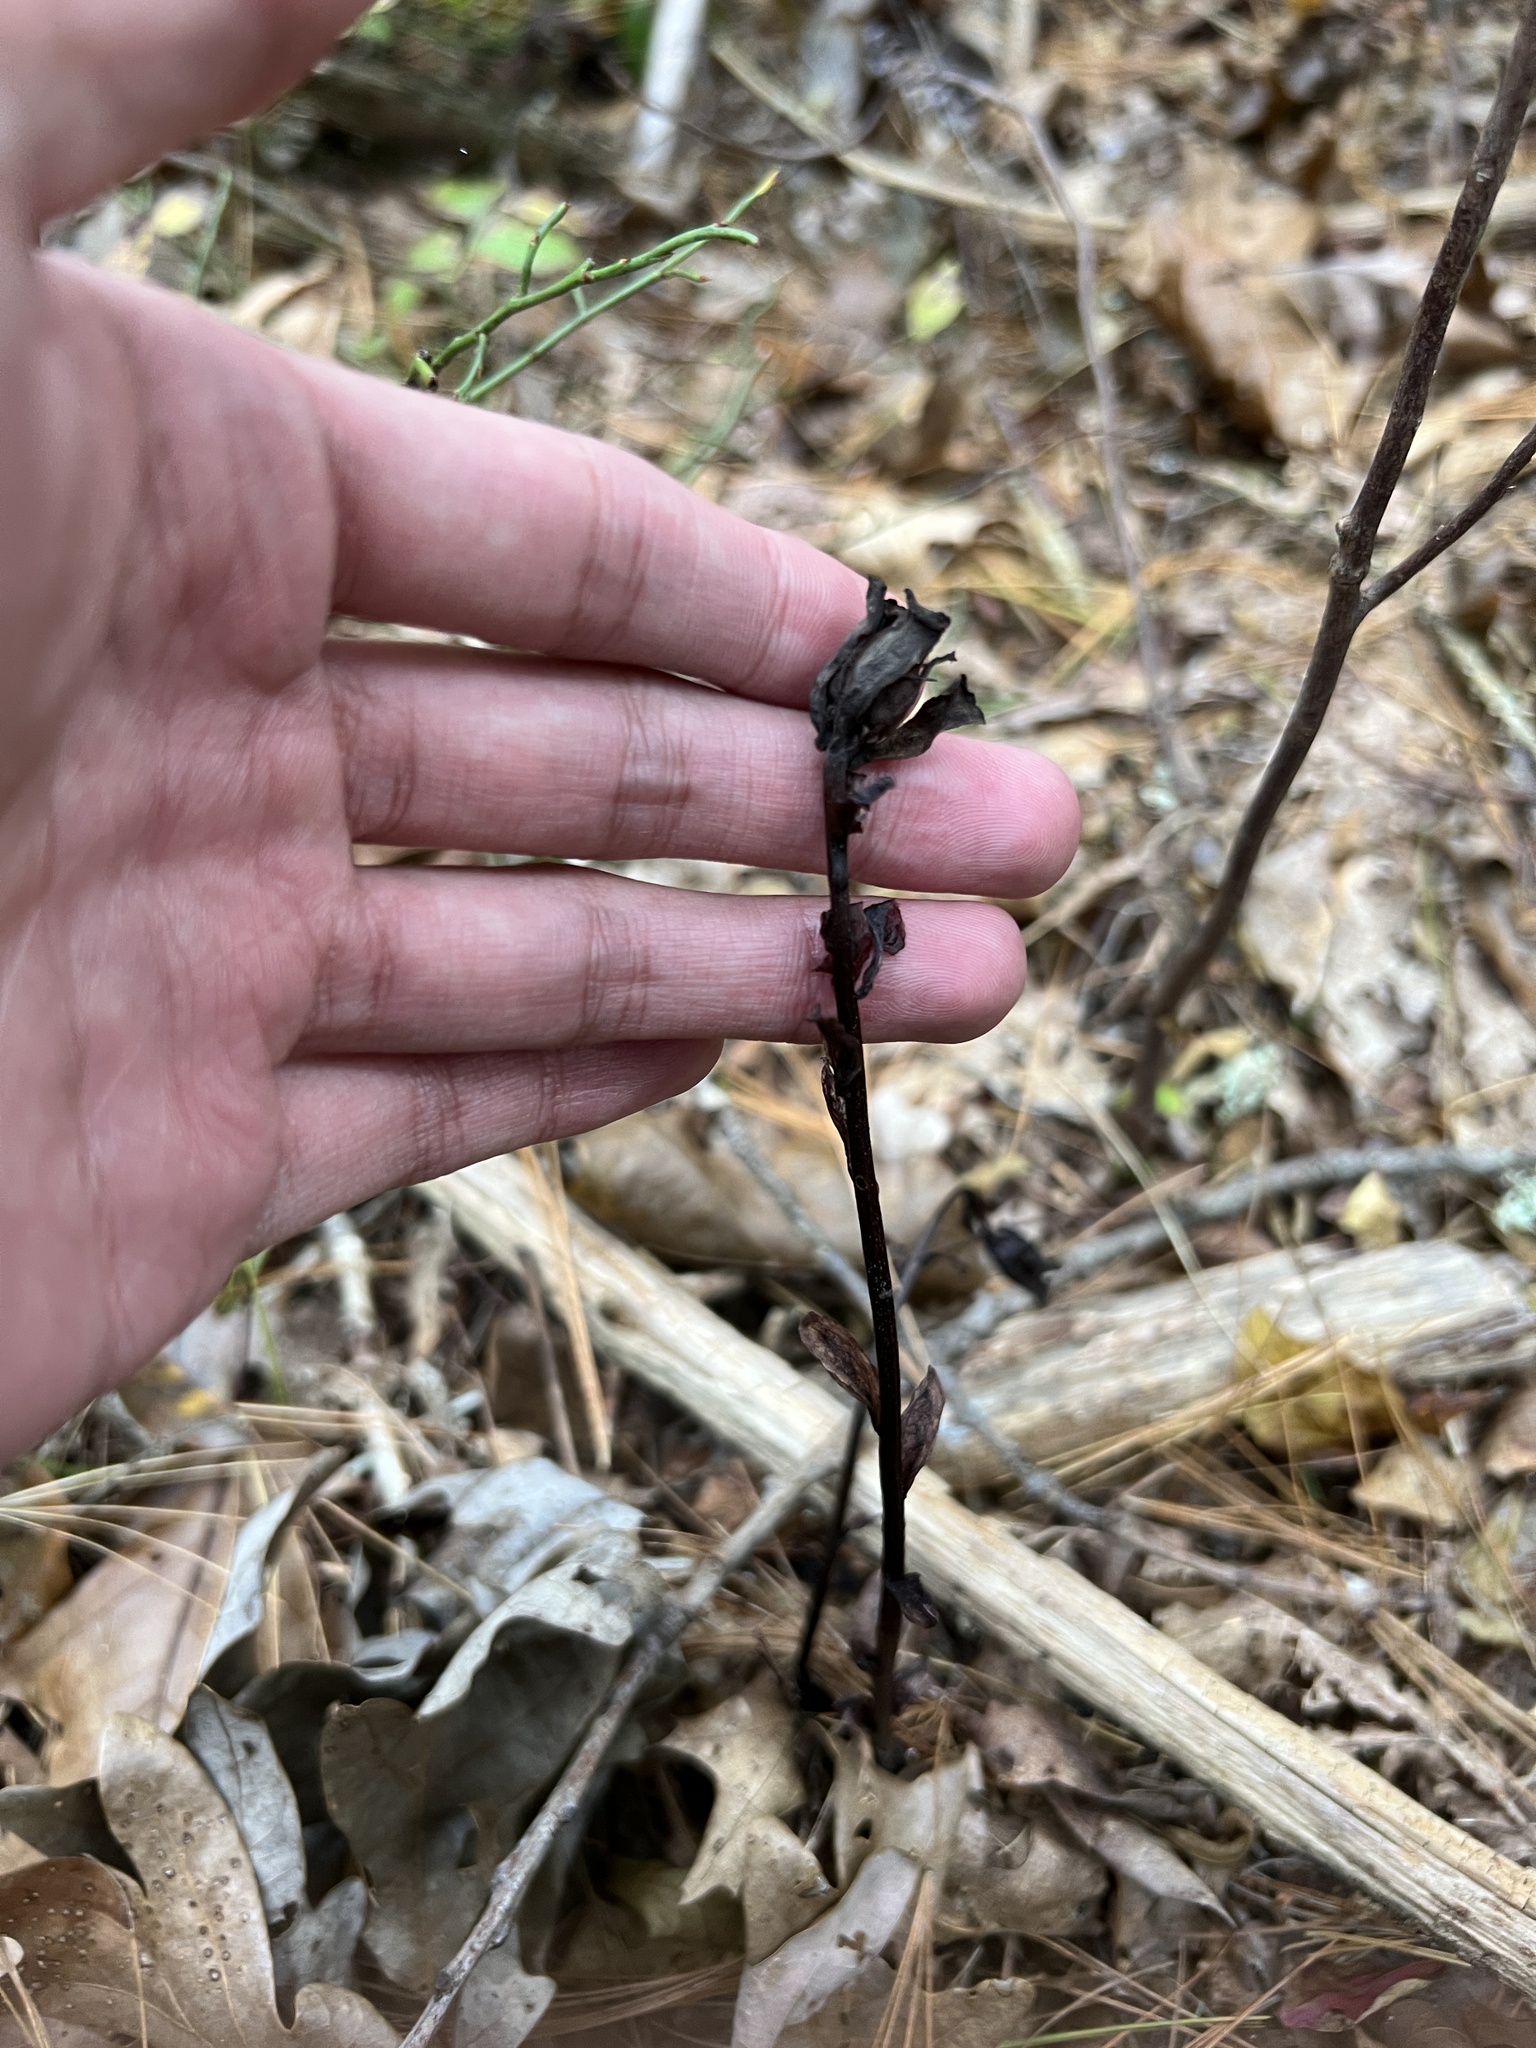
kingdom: Plantae
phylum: Tracheophyta
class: Magnoliopsida
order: Ericales
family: Ericaceae
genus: Monotropa
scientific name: Monotropa uniflora
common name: Convulsion root
